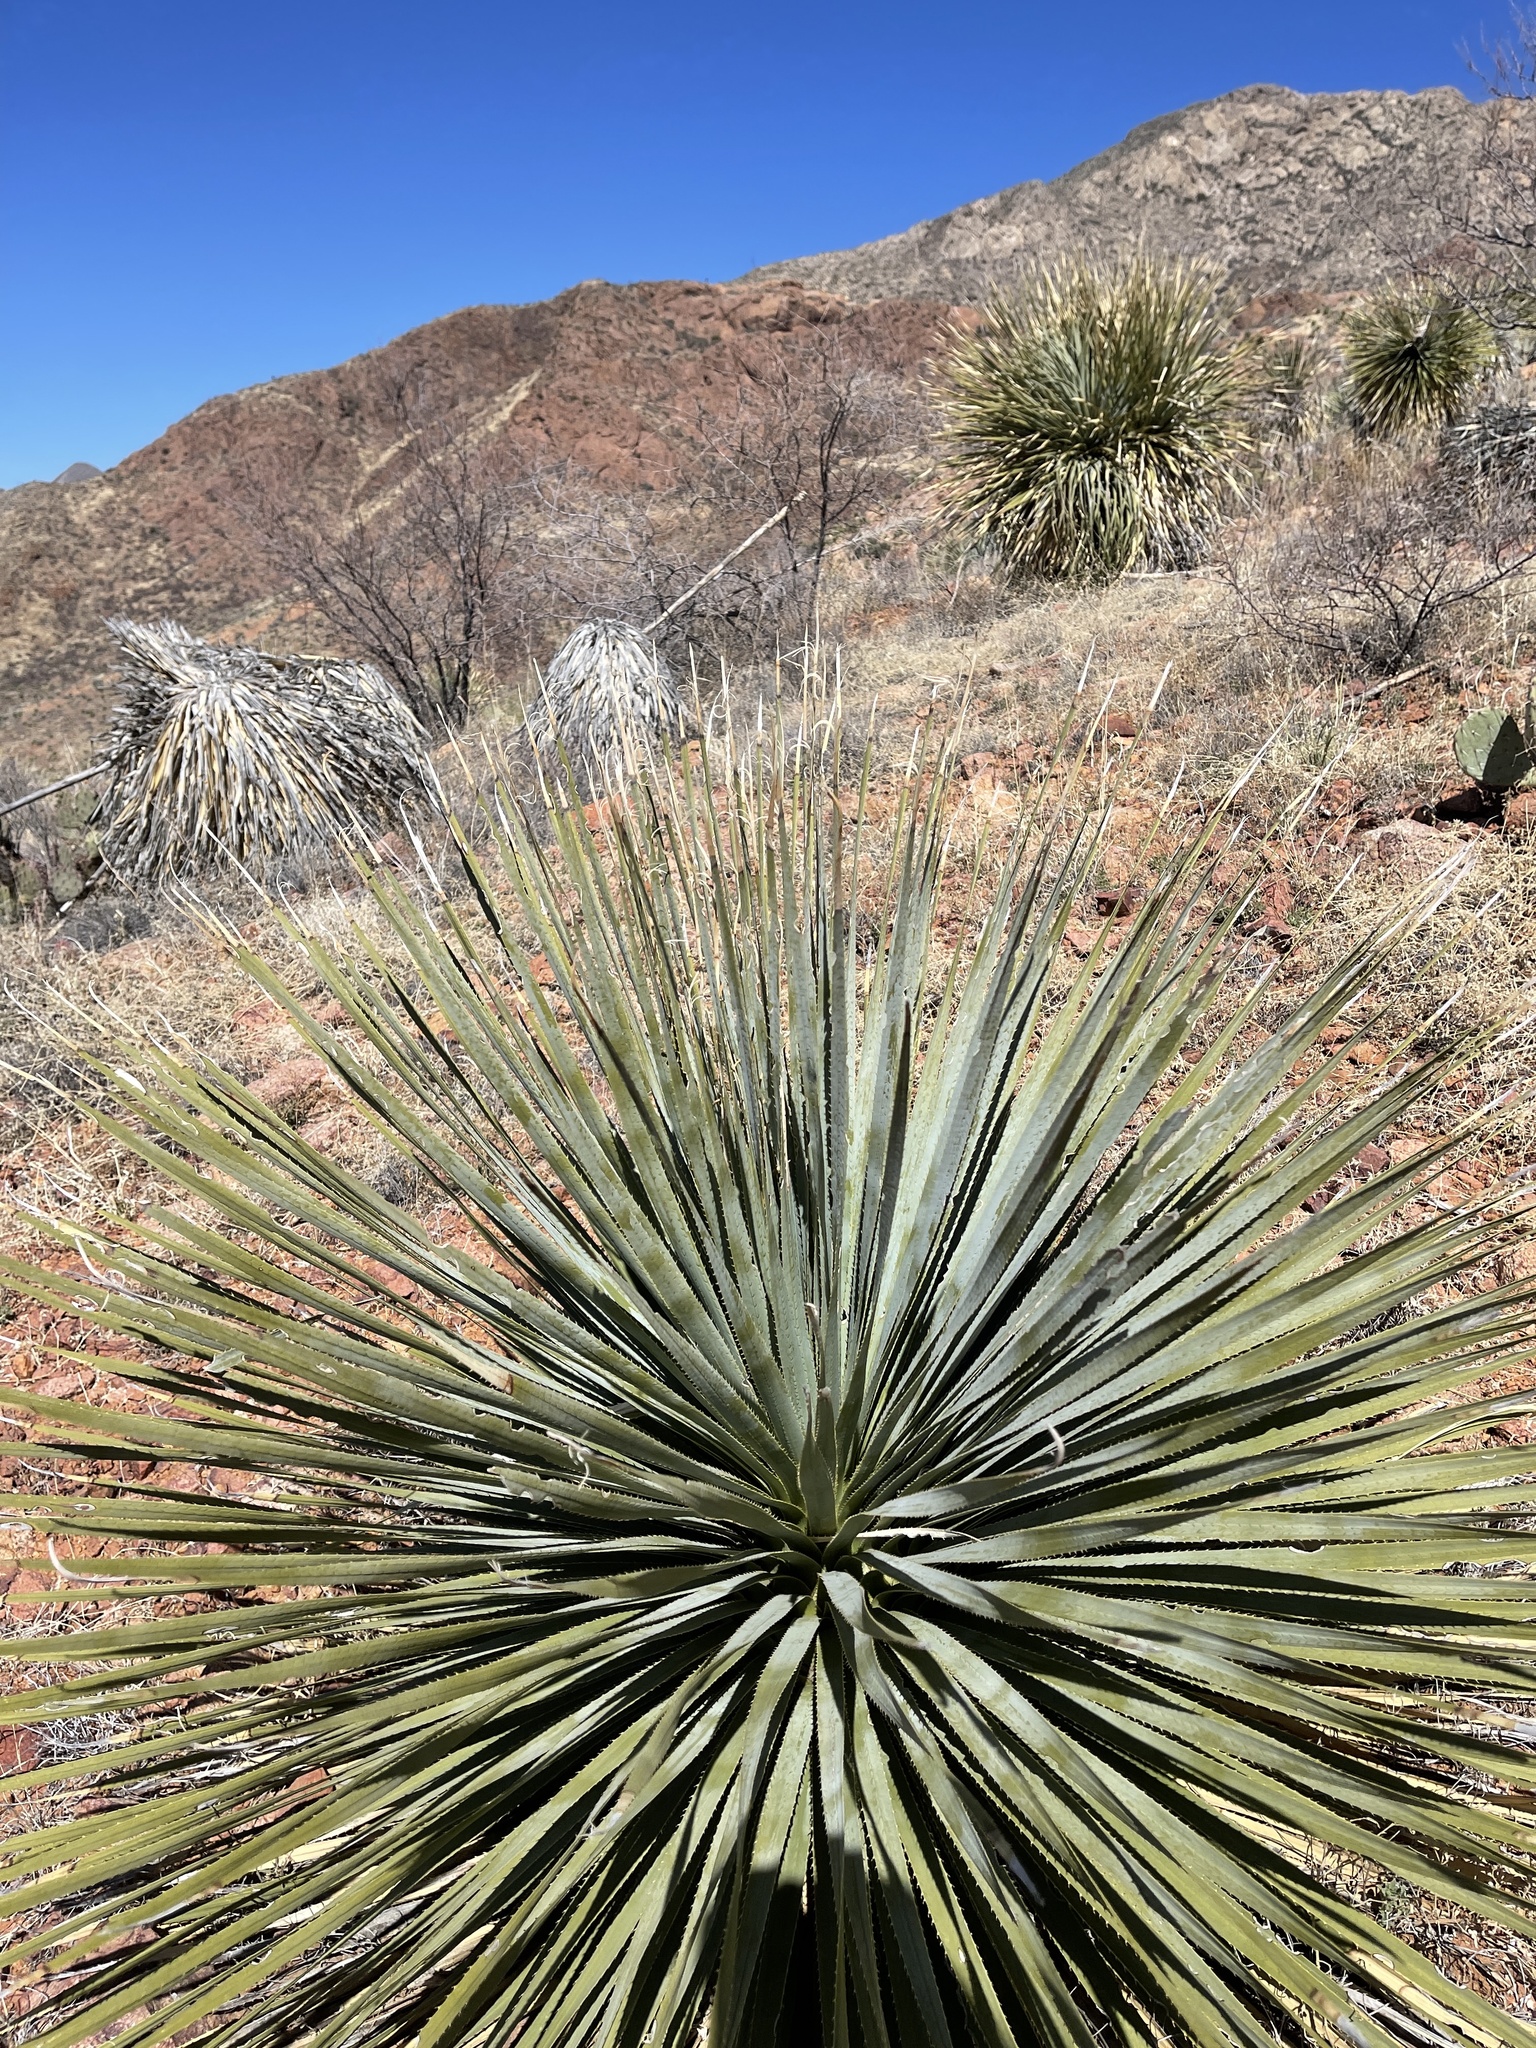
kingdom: Plantae
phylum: Tracheophyta
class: Liliopsida
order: Asparagales
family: Asparagaceae
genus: Dasylirion
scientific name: Dasylirion wheeleri
